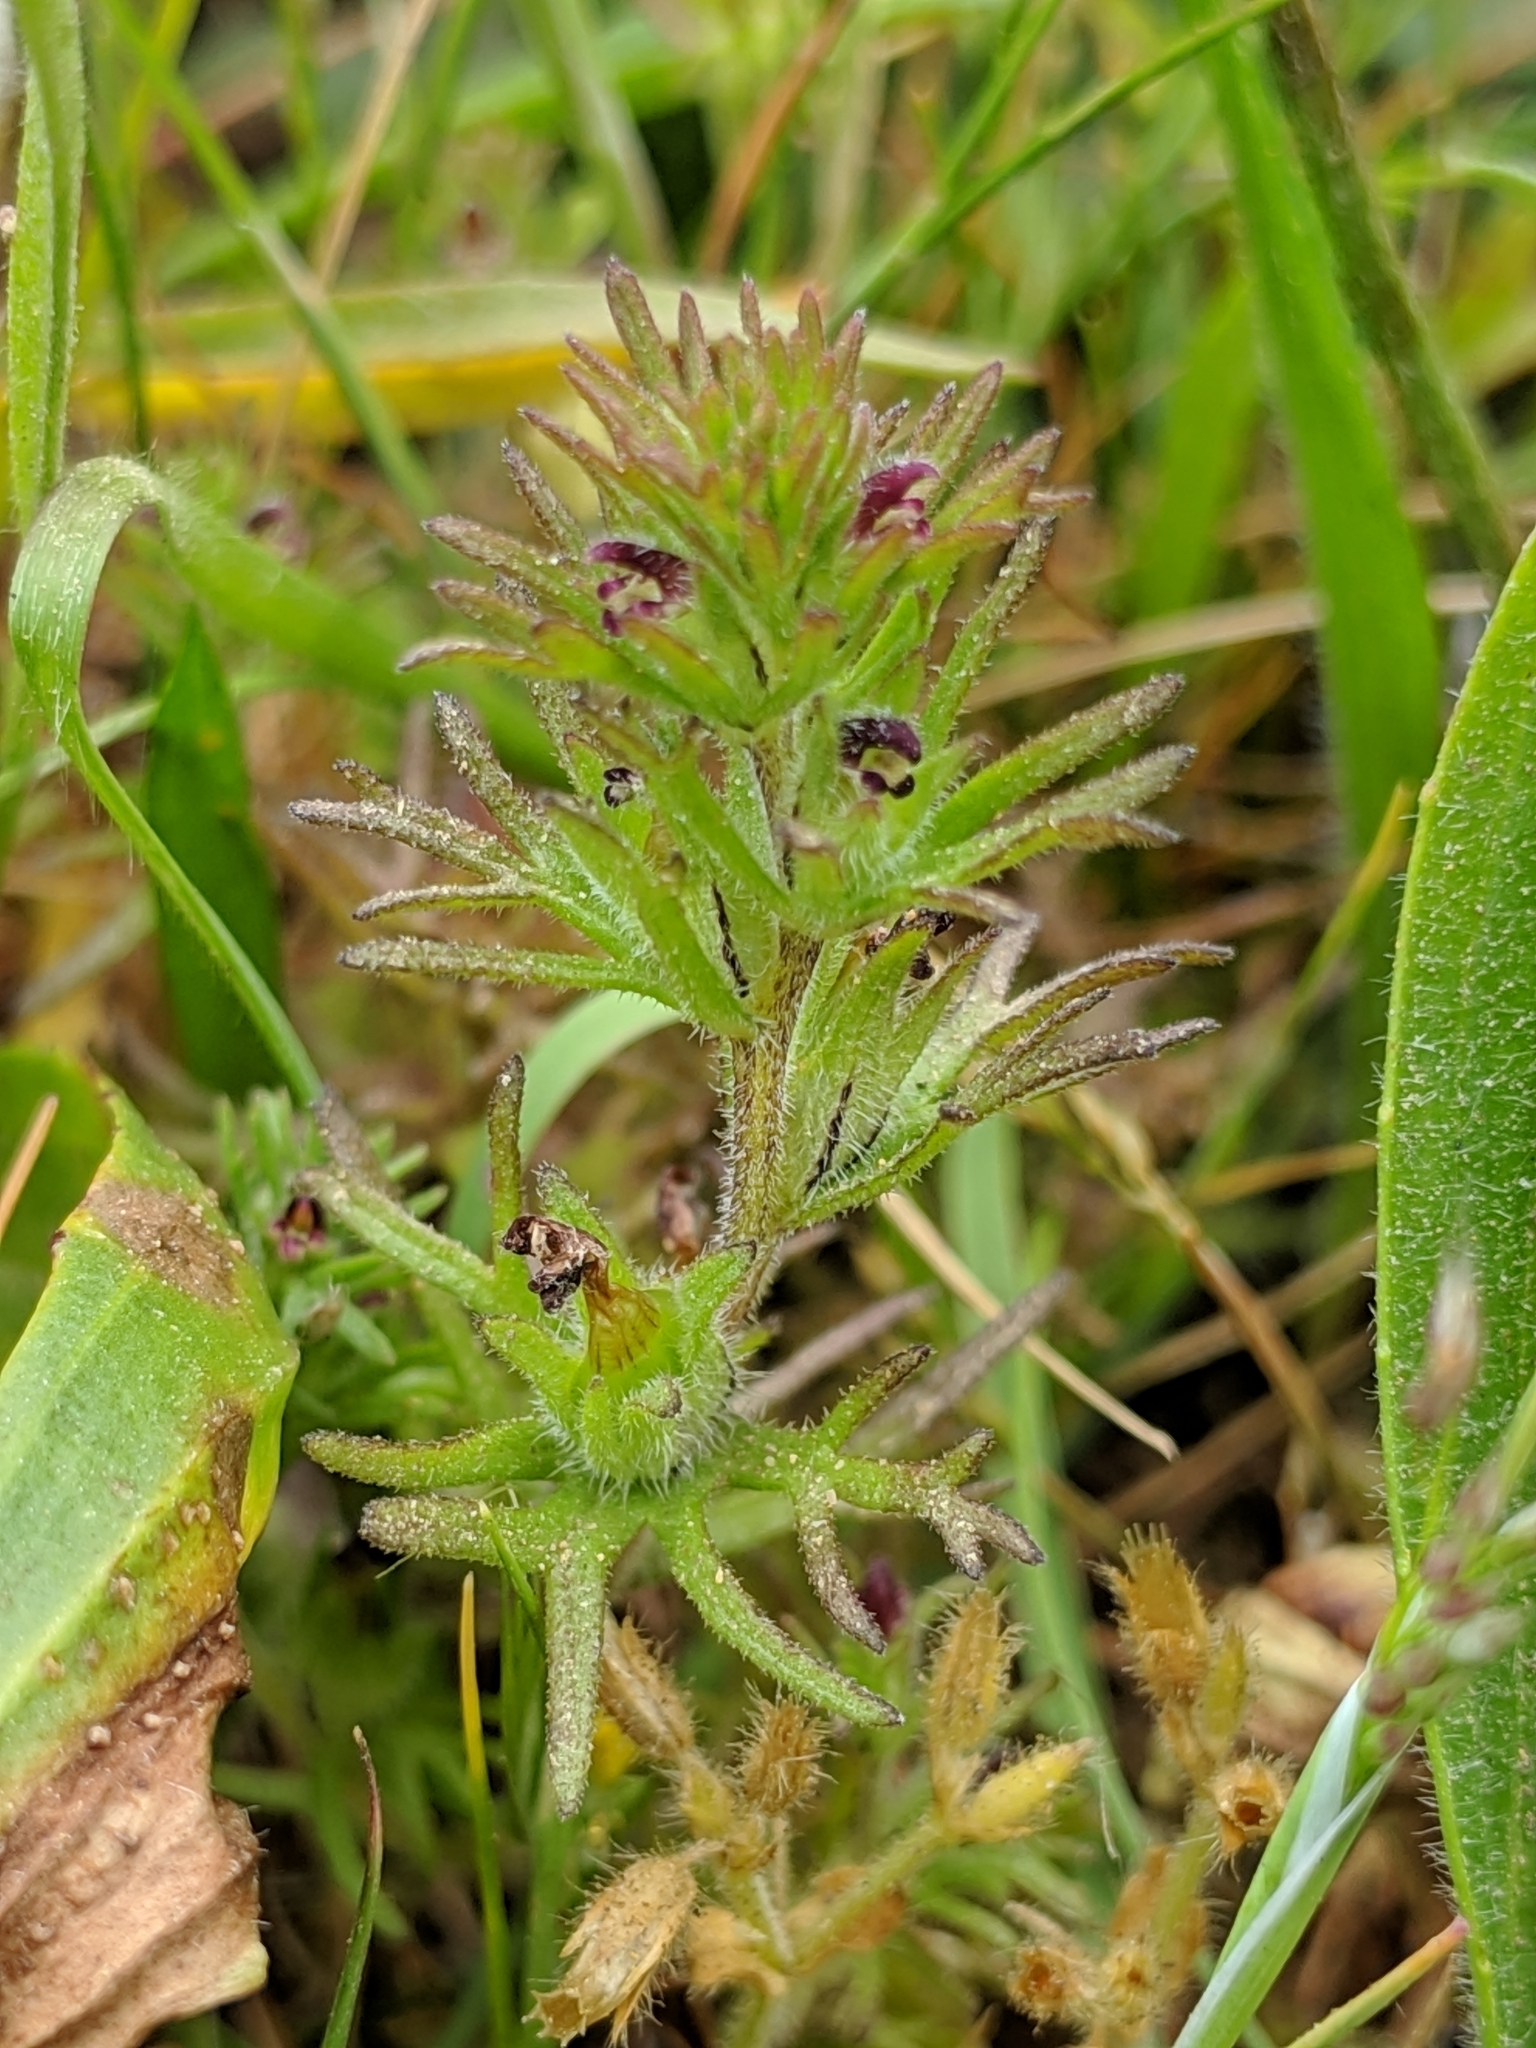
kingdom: Plantae
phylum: Tracheophyta
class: Magnoliopsida
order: Lamiales
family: Orobanchaceae
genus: Triphysaria
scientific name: Triphysaria pusilla
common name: Dwarf false owl-clover
